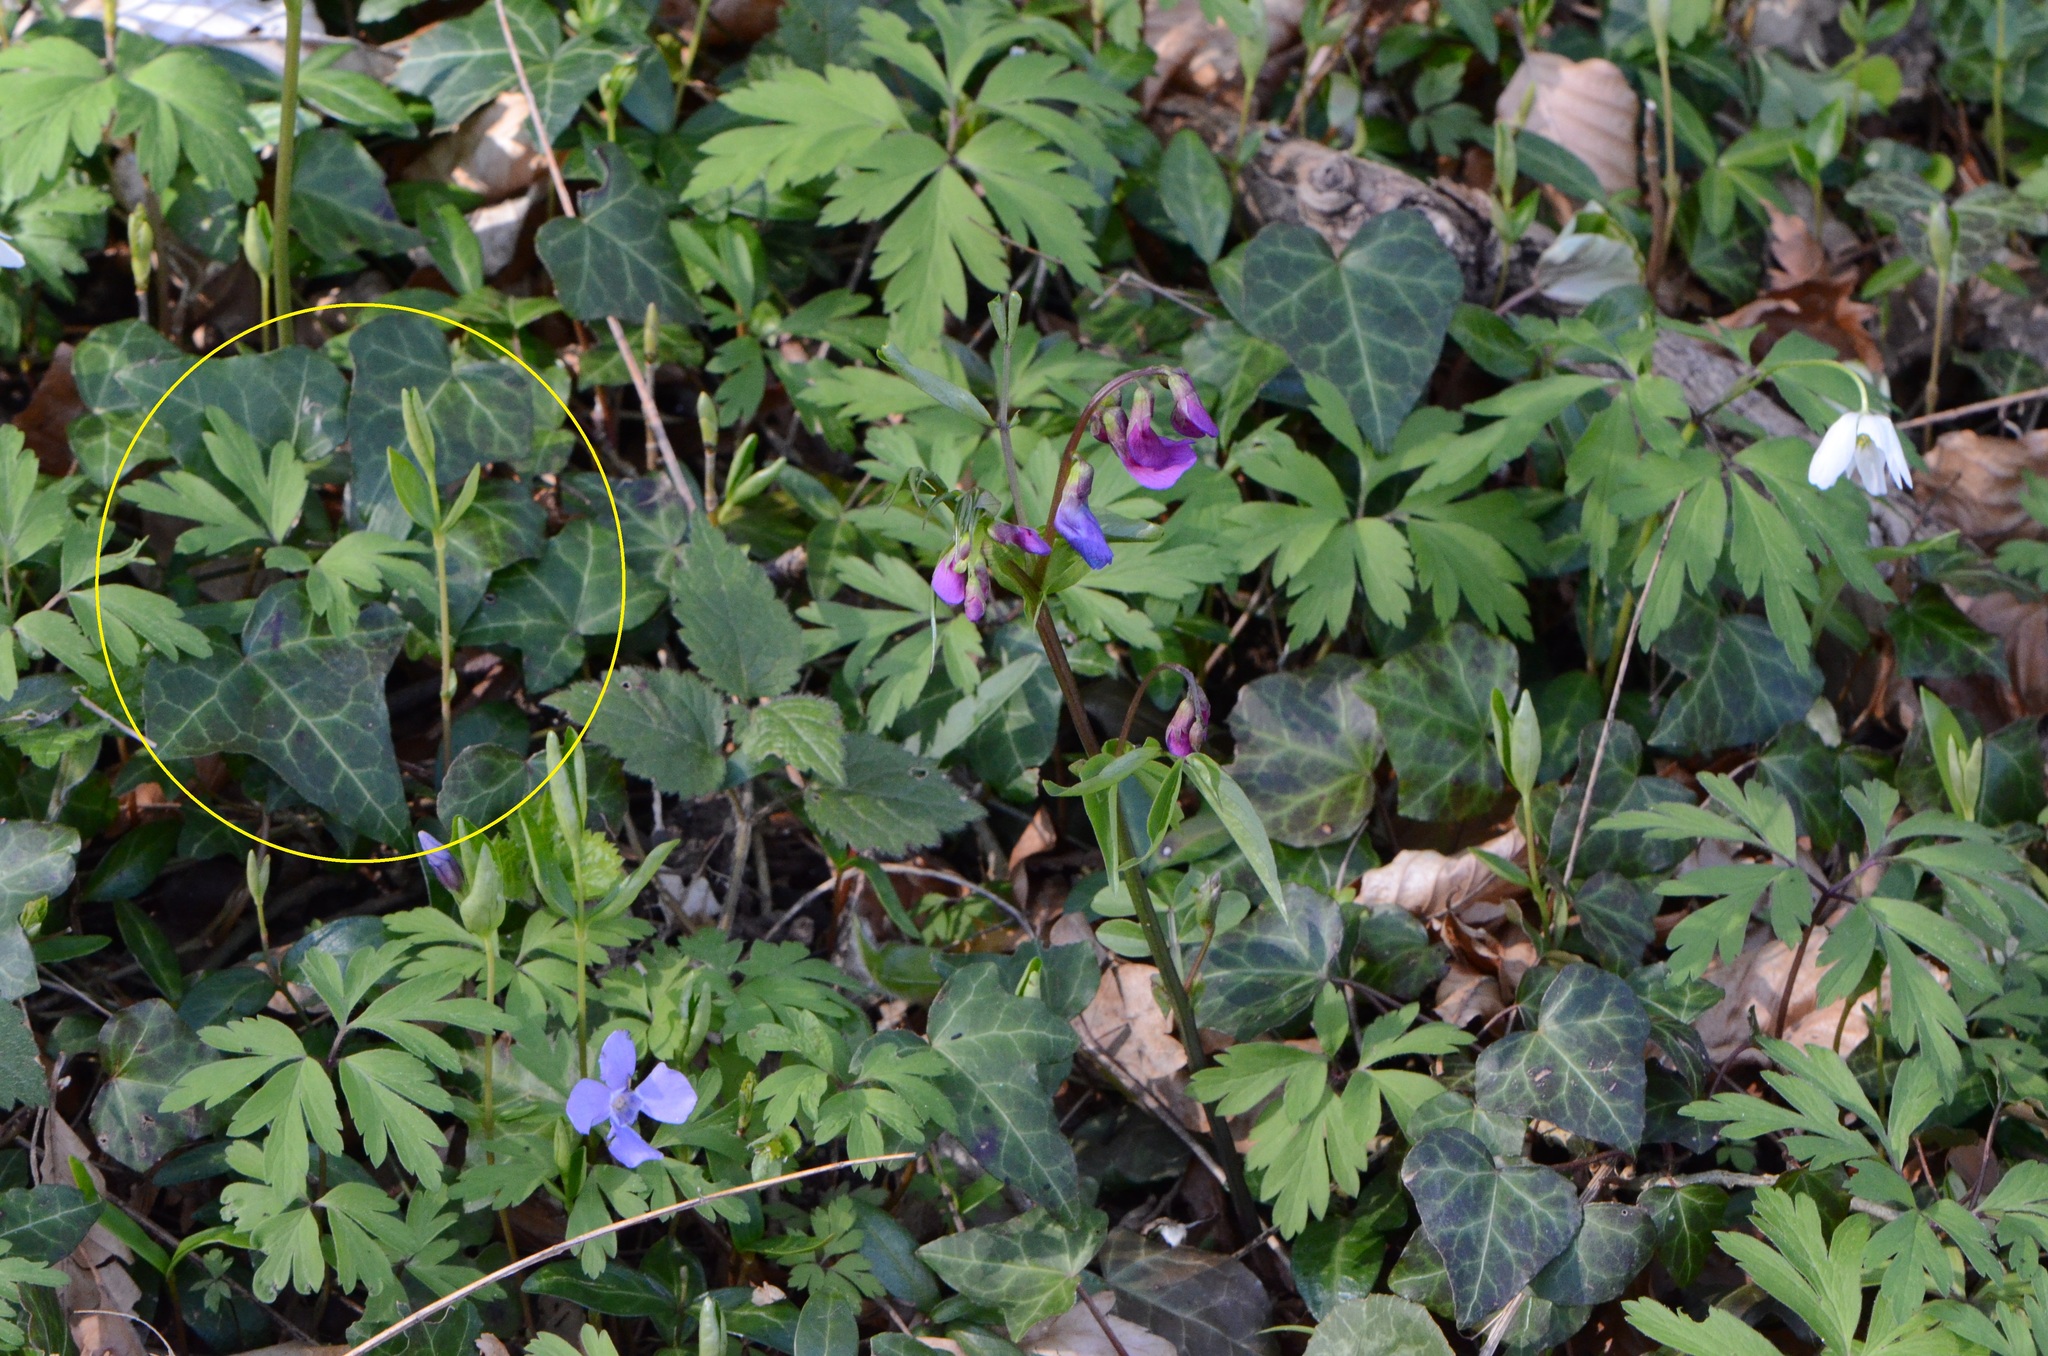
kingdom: Plantae
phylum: Tracheophyta
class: Magnoliopsida
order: Apiales
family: Araliaceae
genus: Hedera
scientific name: Hedera helix
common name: Ivy
